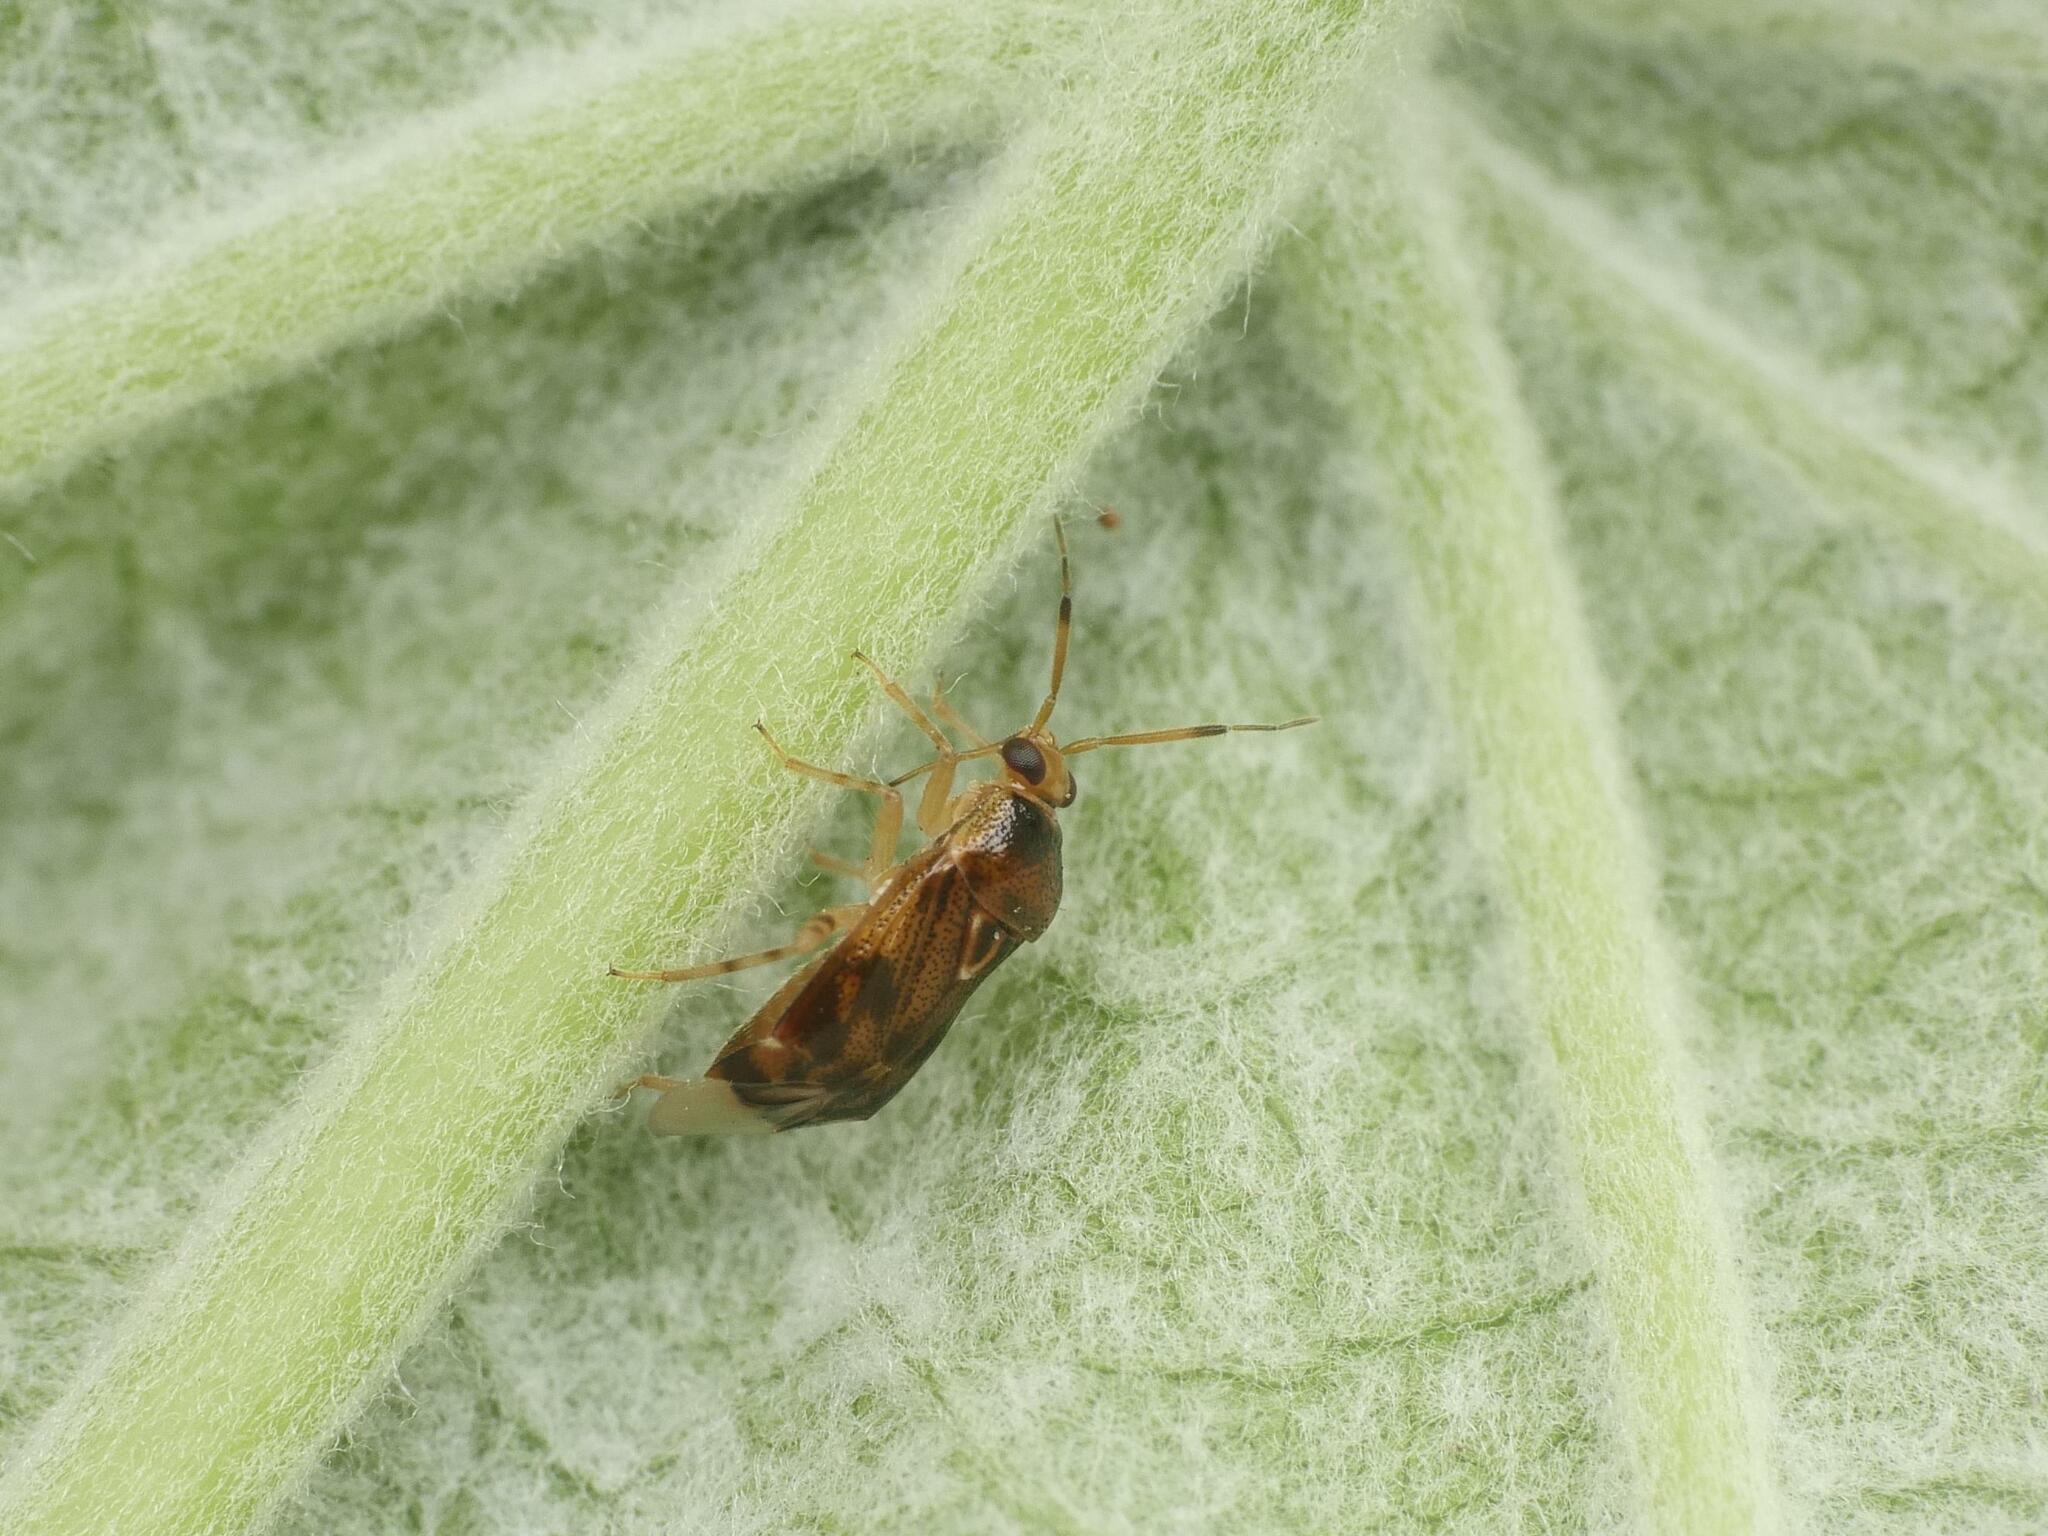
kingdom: Animalia
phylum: Arthropoda
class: Insecta
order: Hemiptera
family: Miridae
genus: Deraeocoris
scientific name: Deraeocoris lutescens
